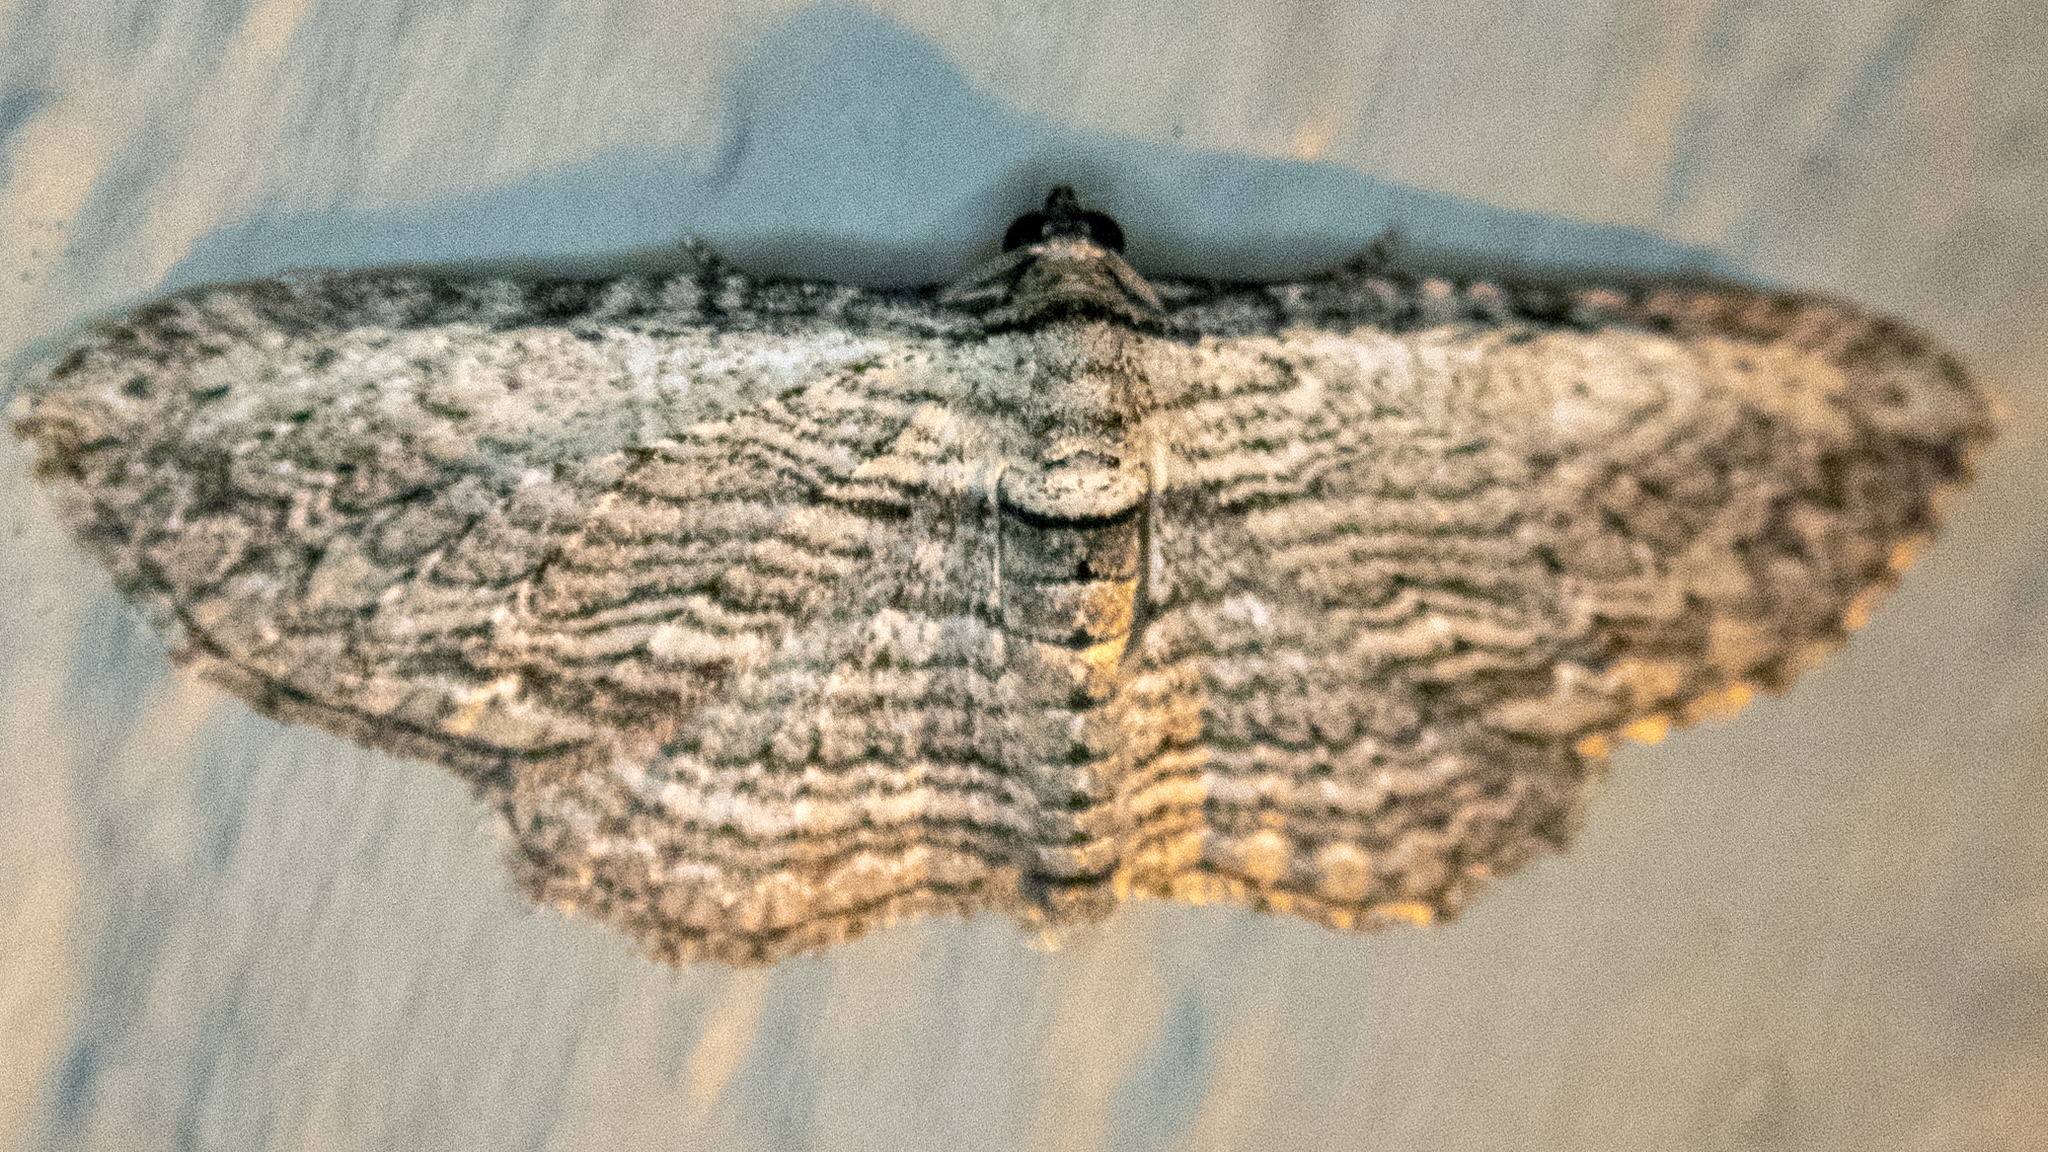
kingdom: Animalia
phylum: Arthropoda
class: Insecta
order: Lepidoptera
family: Geometridae
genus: Horisme
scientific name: Horisme intestinata
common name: Brown bark carpet
